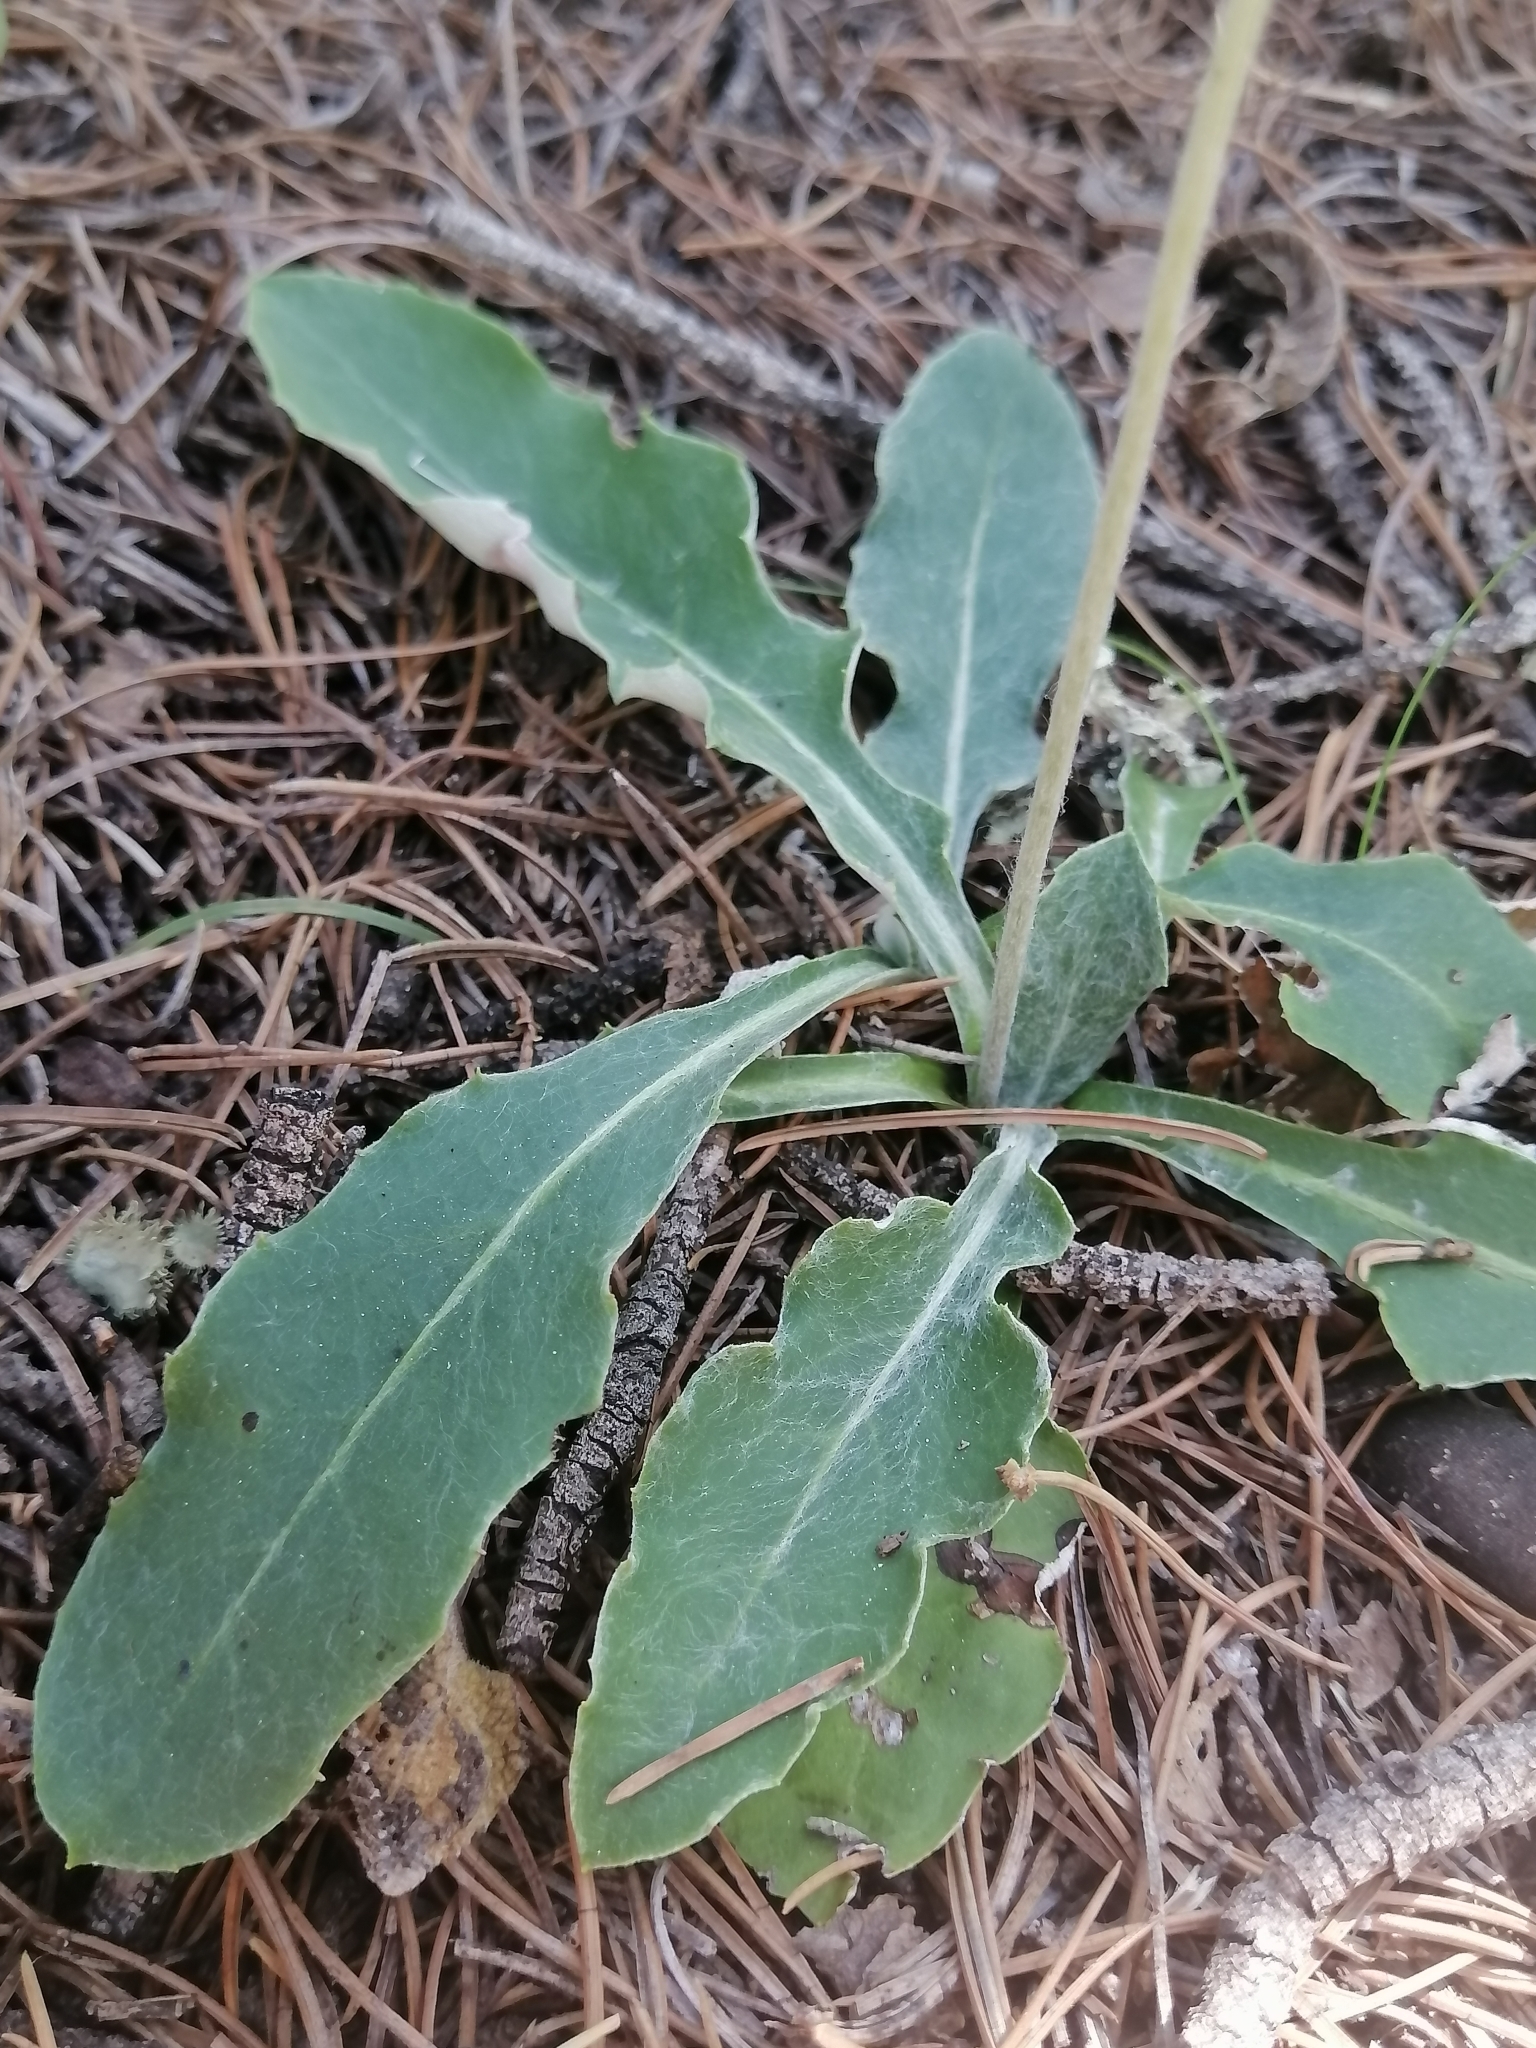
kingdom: Plantae
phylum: Tracheophyta
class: Magnoliopsida
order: Asterales
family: Asteraceae
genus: Chaptalia
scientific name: Chaptalia nutans
